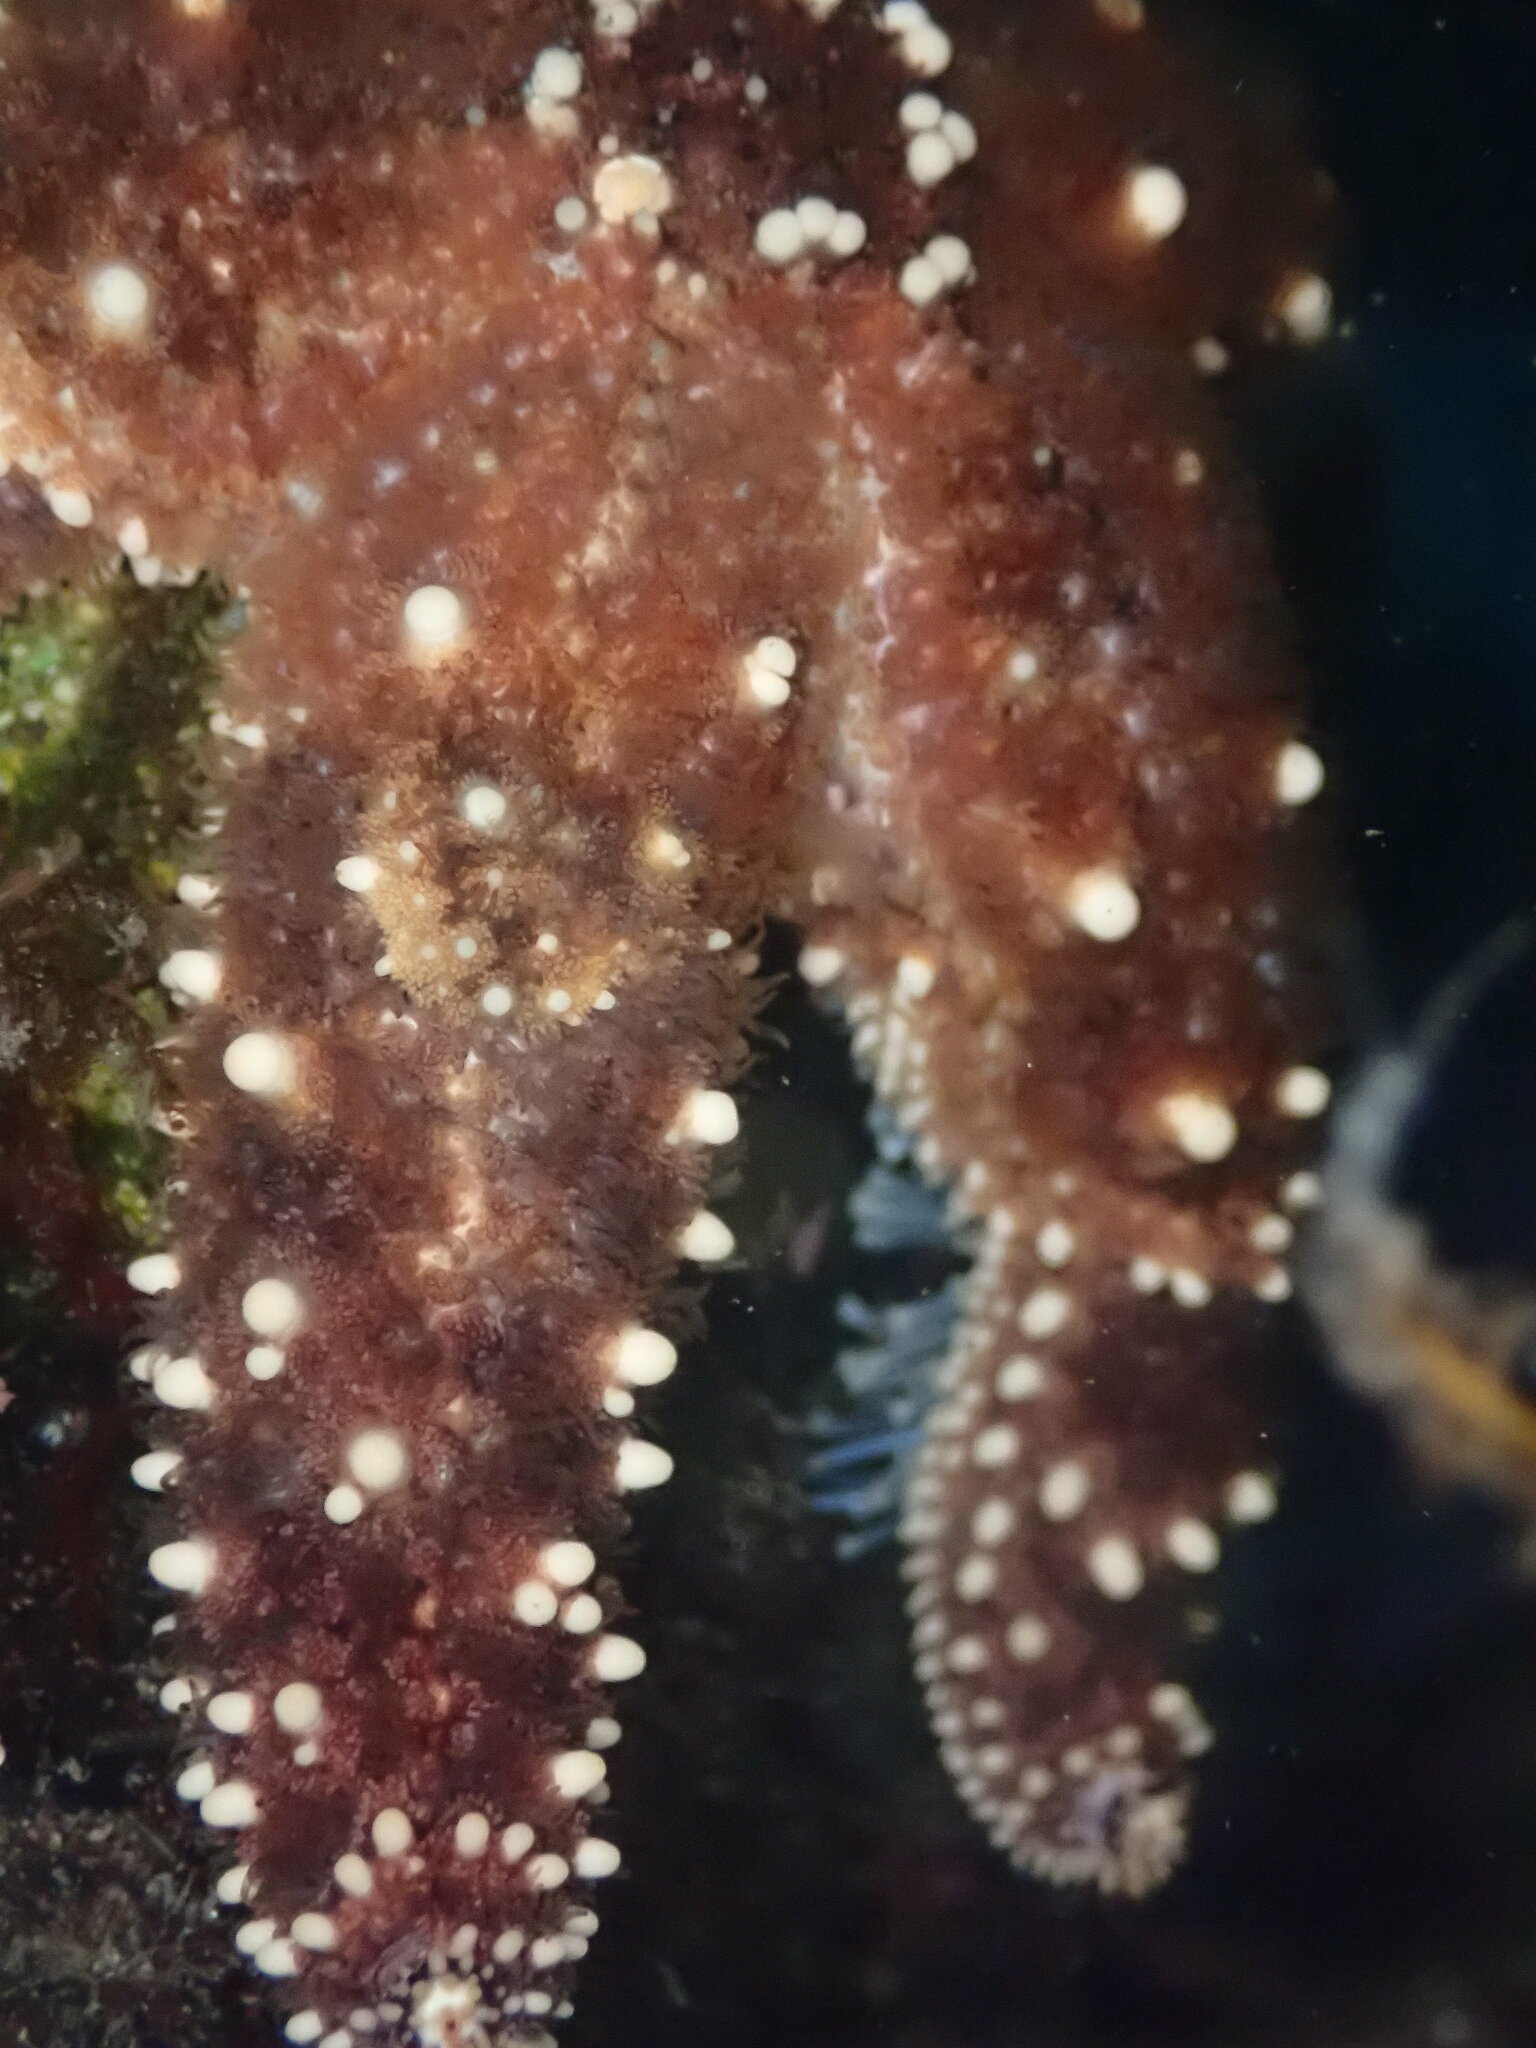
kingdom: Animalia
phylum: Echinodermata
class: Asteroidea
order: Forcipulatida
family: Asteriidae
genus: Pisaster
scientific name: Pisaster ochraceus
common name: Ochre stars
